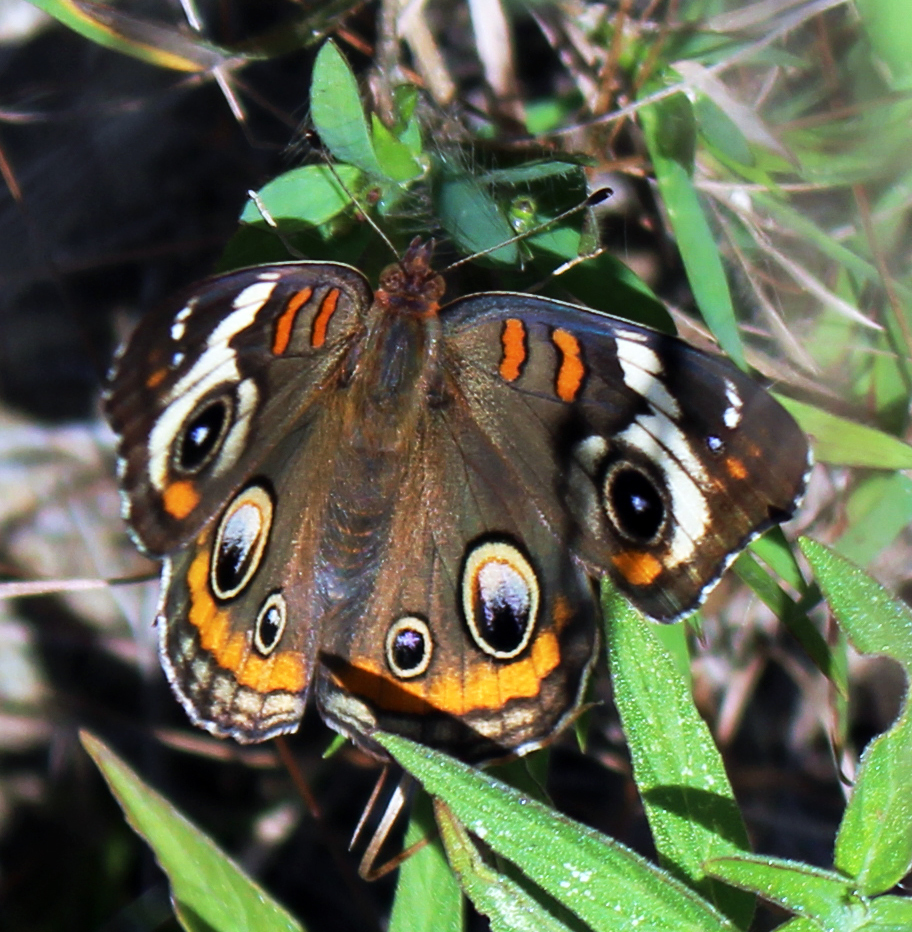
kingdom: Animalia
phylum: Arthropoda
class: Insecta
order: Lepidoptera
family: Nymphalidae
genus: Junonia
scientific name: Junonia coenia
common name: Common buckeye
